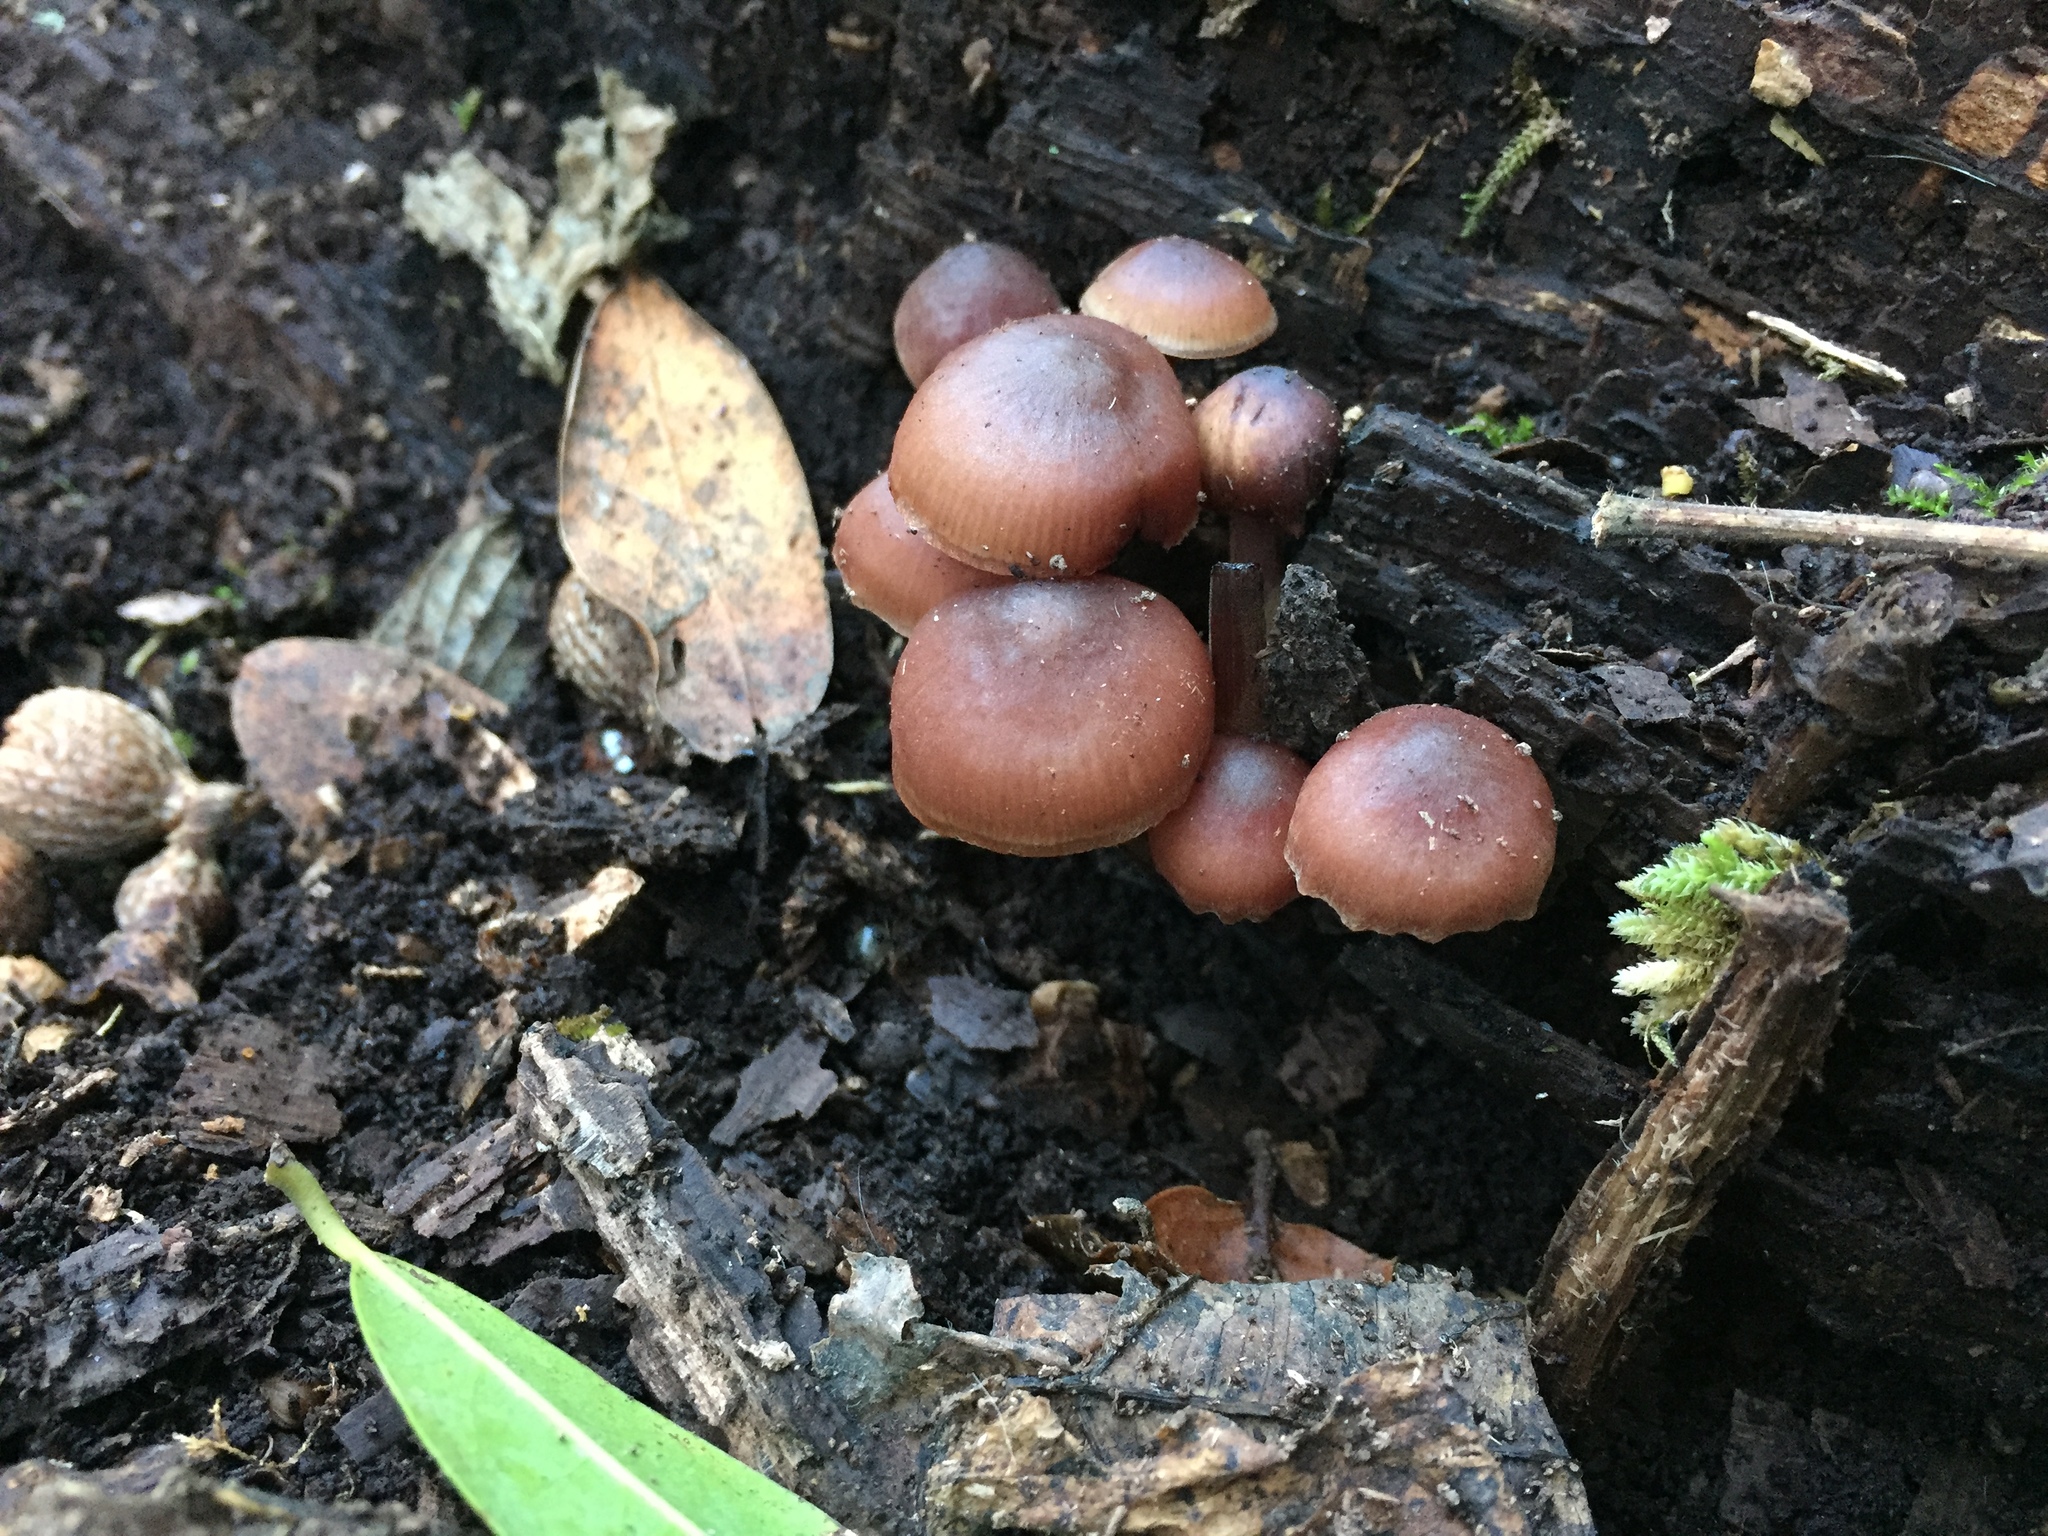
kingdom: Fungi
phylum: Basidiomycota
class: Agaricomycetes
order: Agaricales
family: Mycenaceae
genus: Mycena
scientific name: Mycena haematopus
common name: Burgundydrop bonnet
